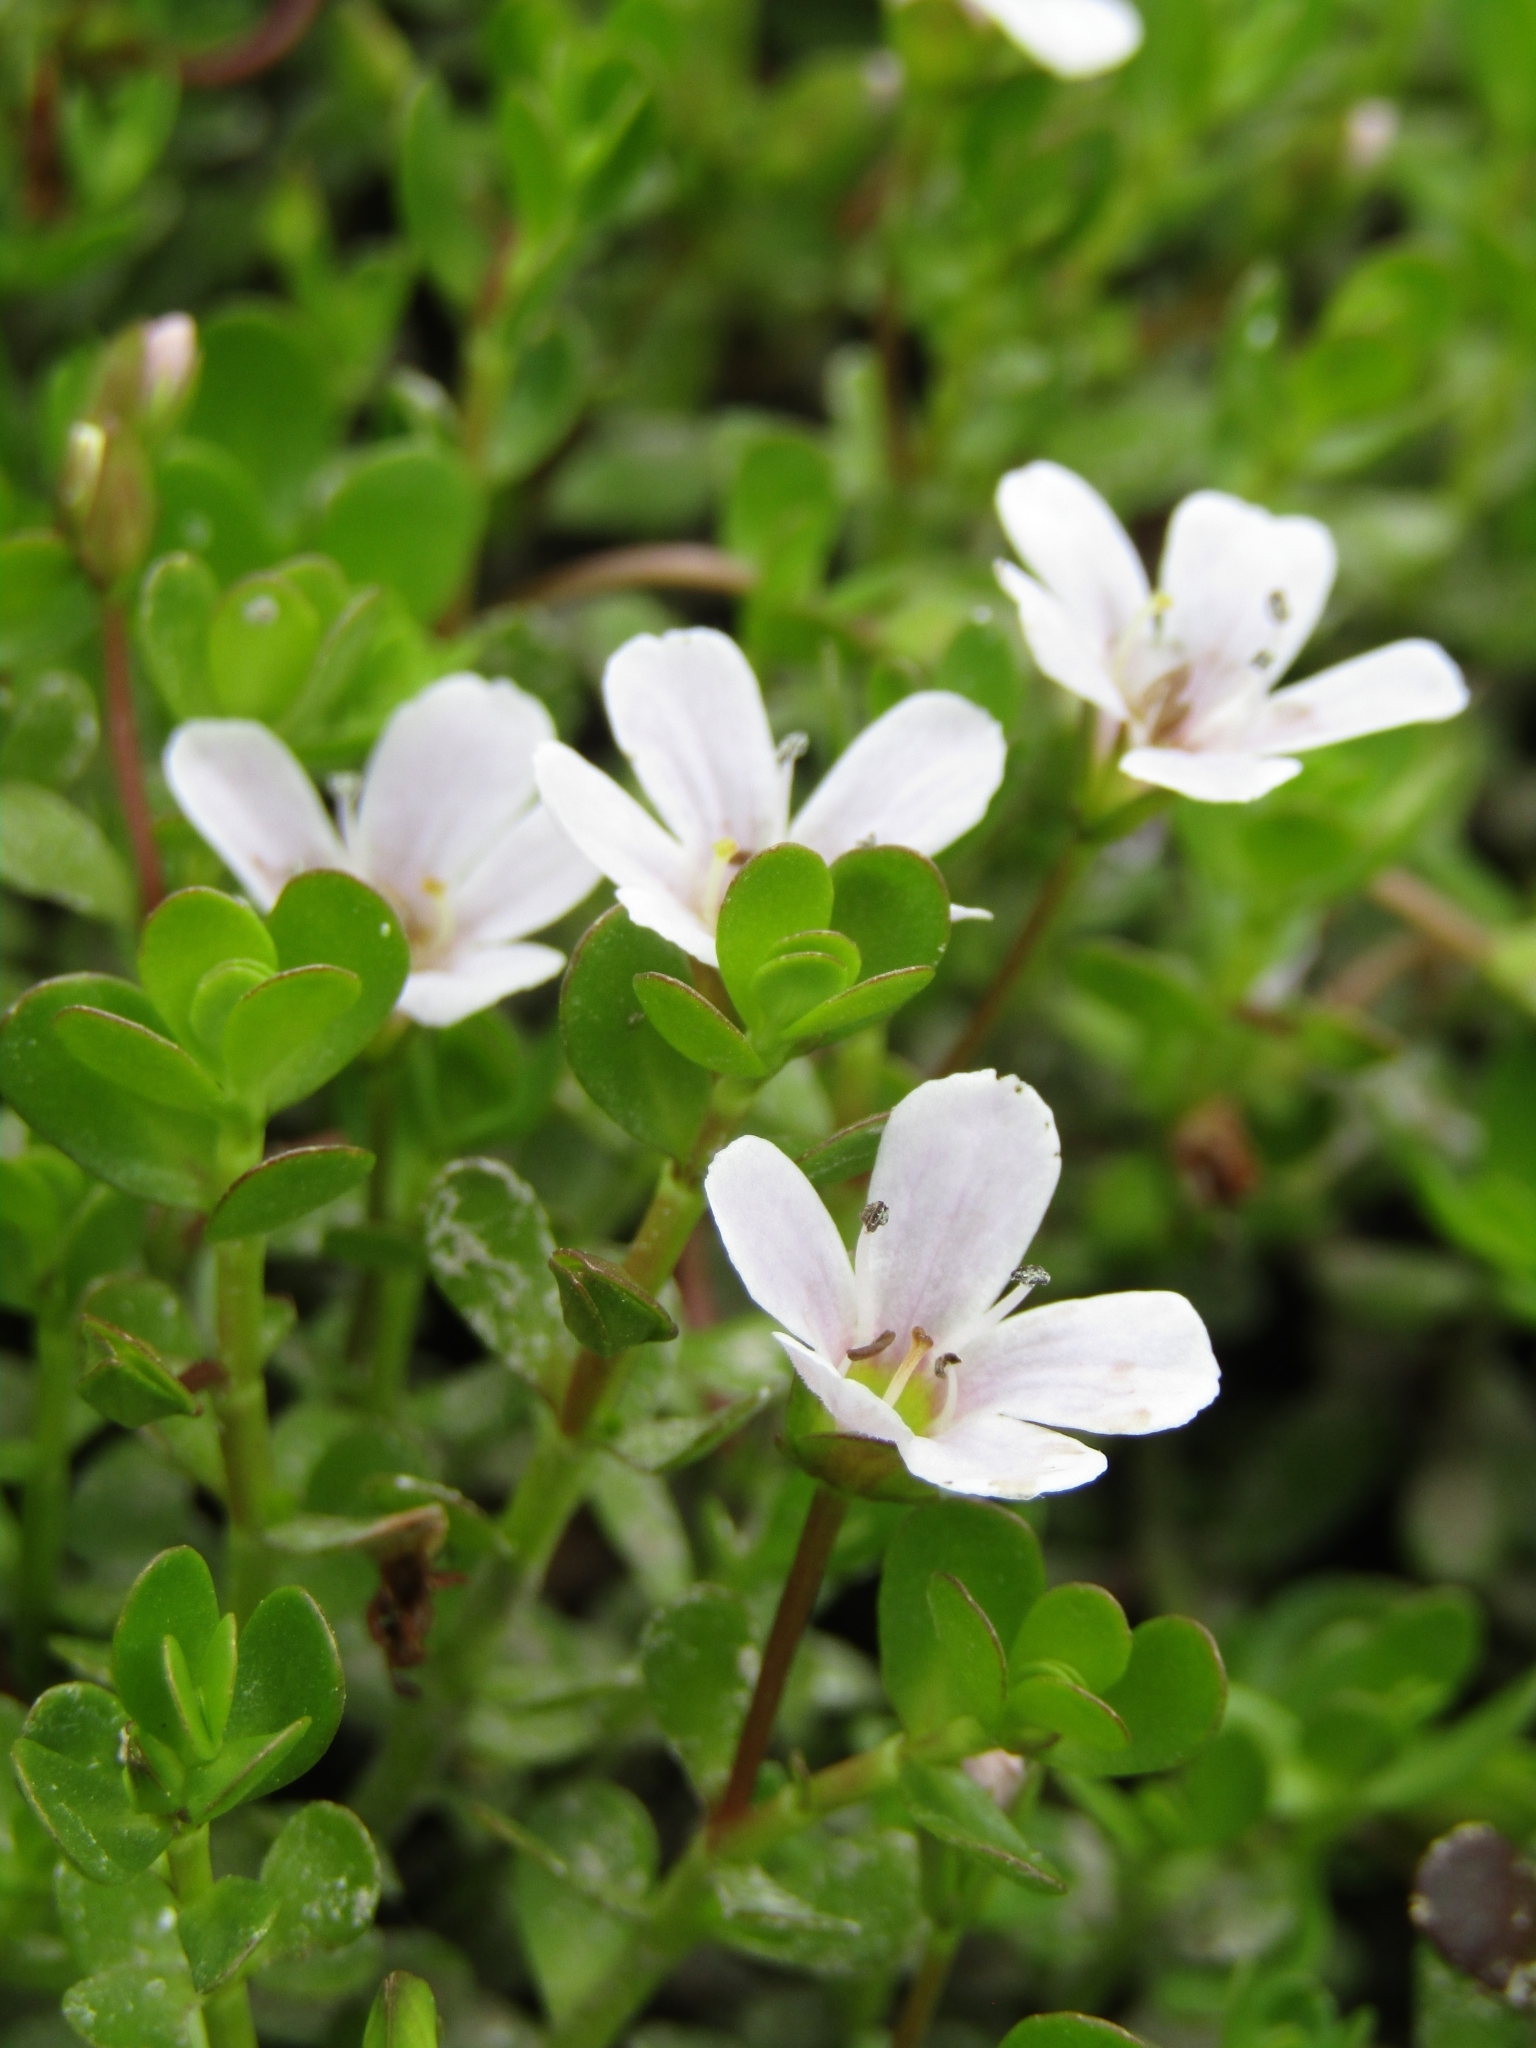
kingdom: Plantae
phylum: Tracheophyta
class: Magnoliopsida
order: Lamiales
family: Plantaginaceae
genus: Bacopa
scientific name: Bacopa monnieri
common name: Indian-pennywort
